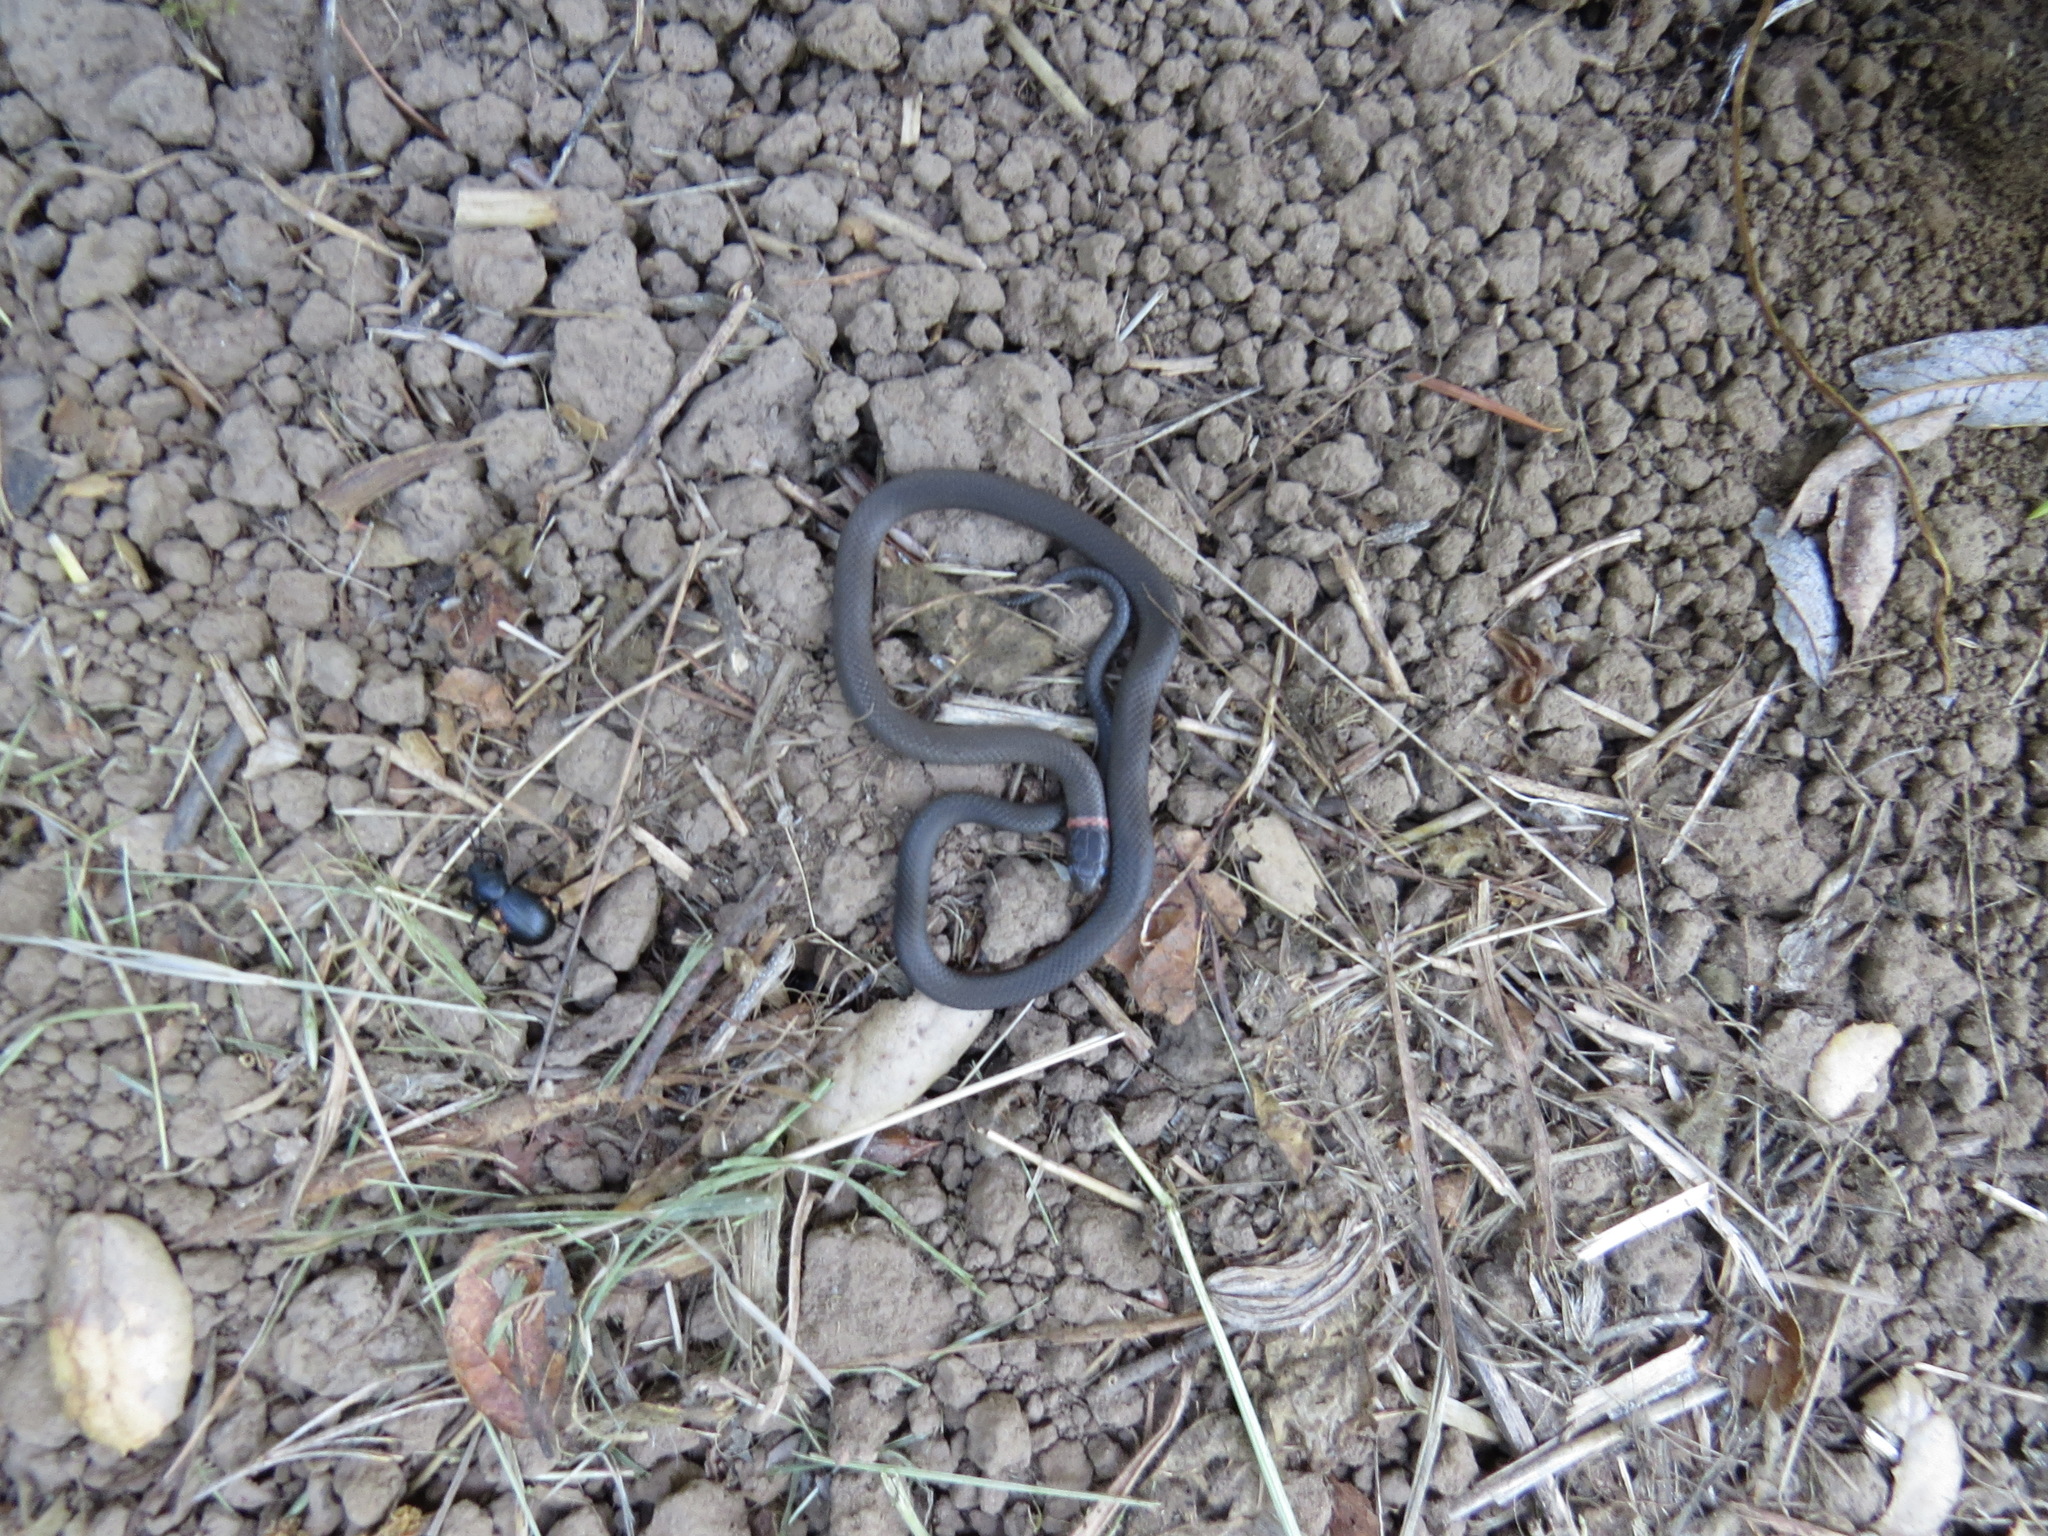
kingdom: Animalia
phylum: Chordata
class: Squamata
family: Colubridae
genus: Diadophis
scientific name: Diadophis punctatus
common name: Ringneck snake
